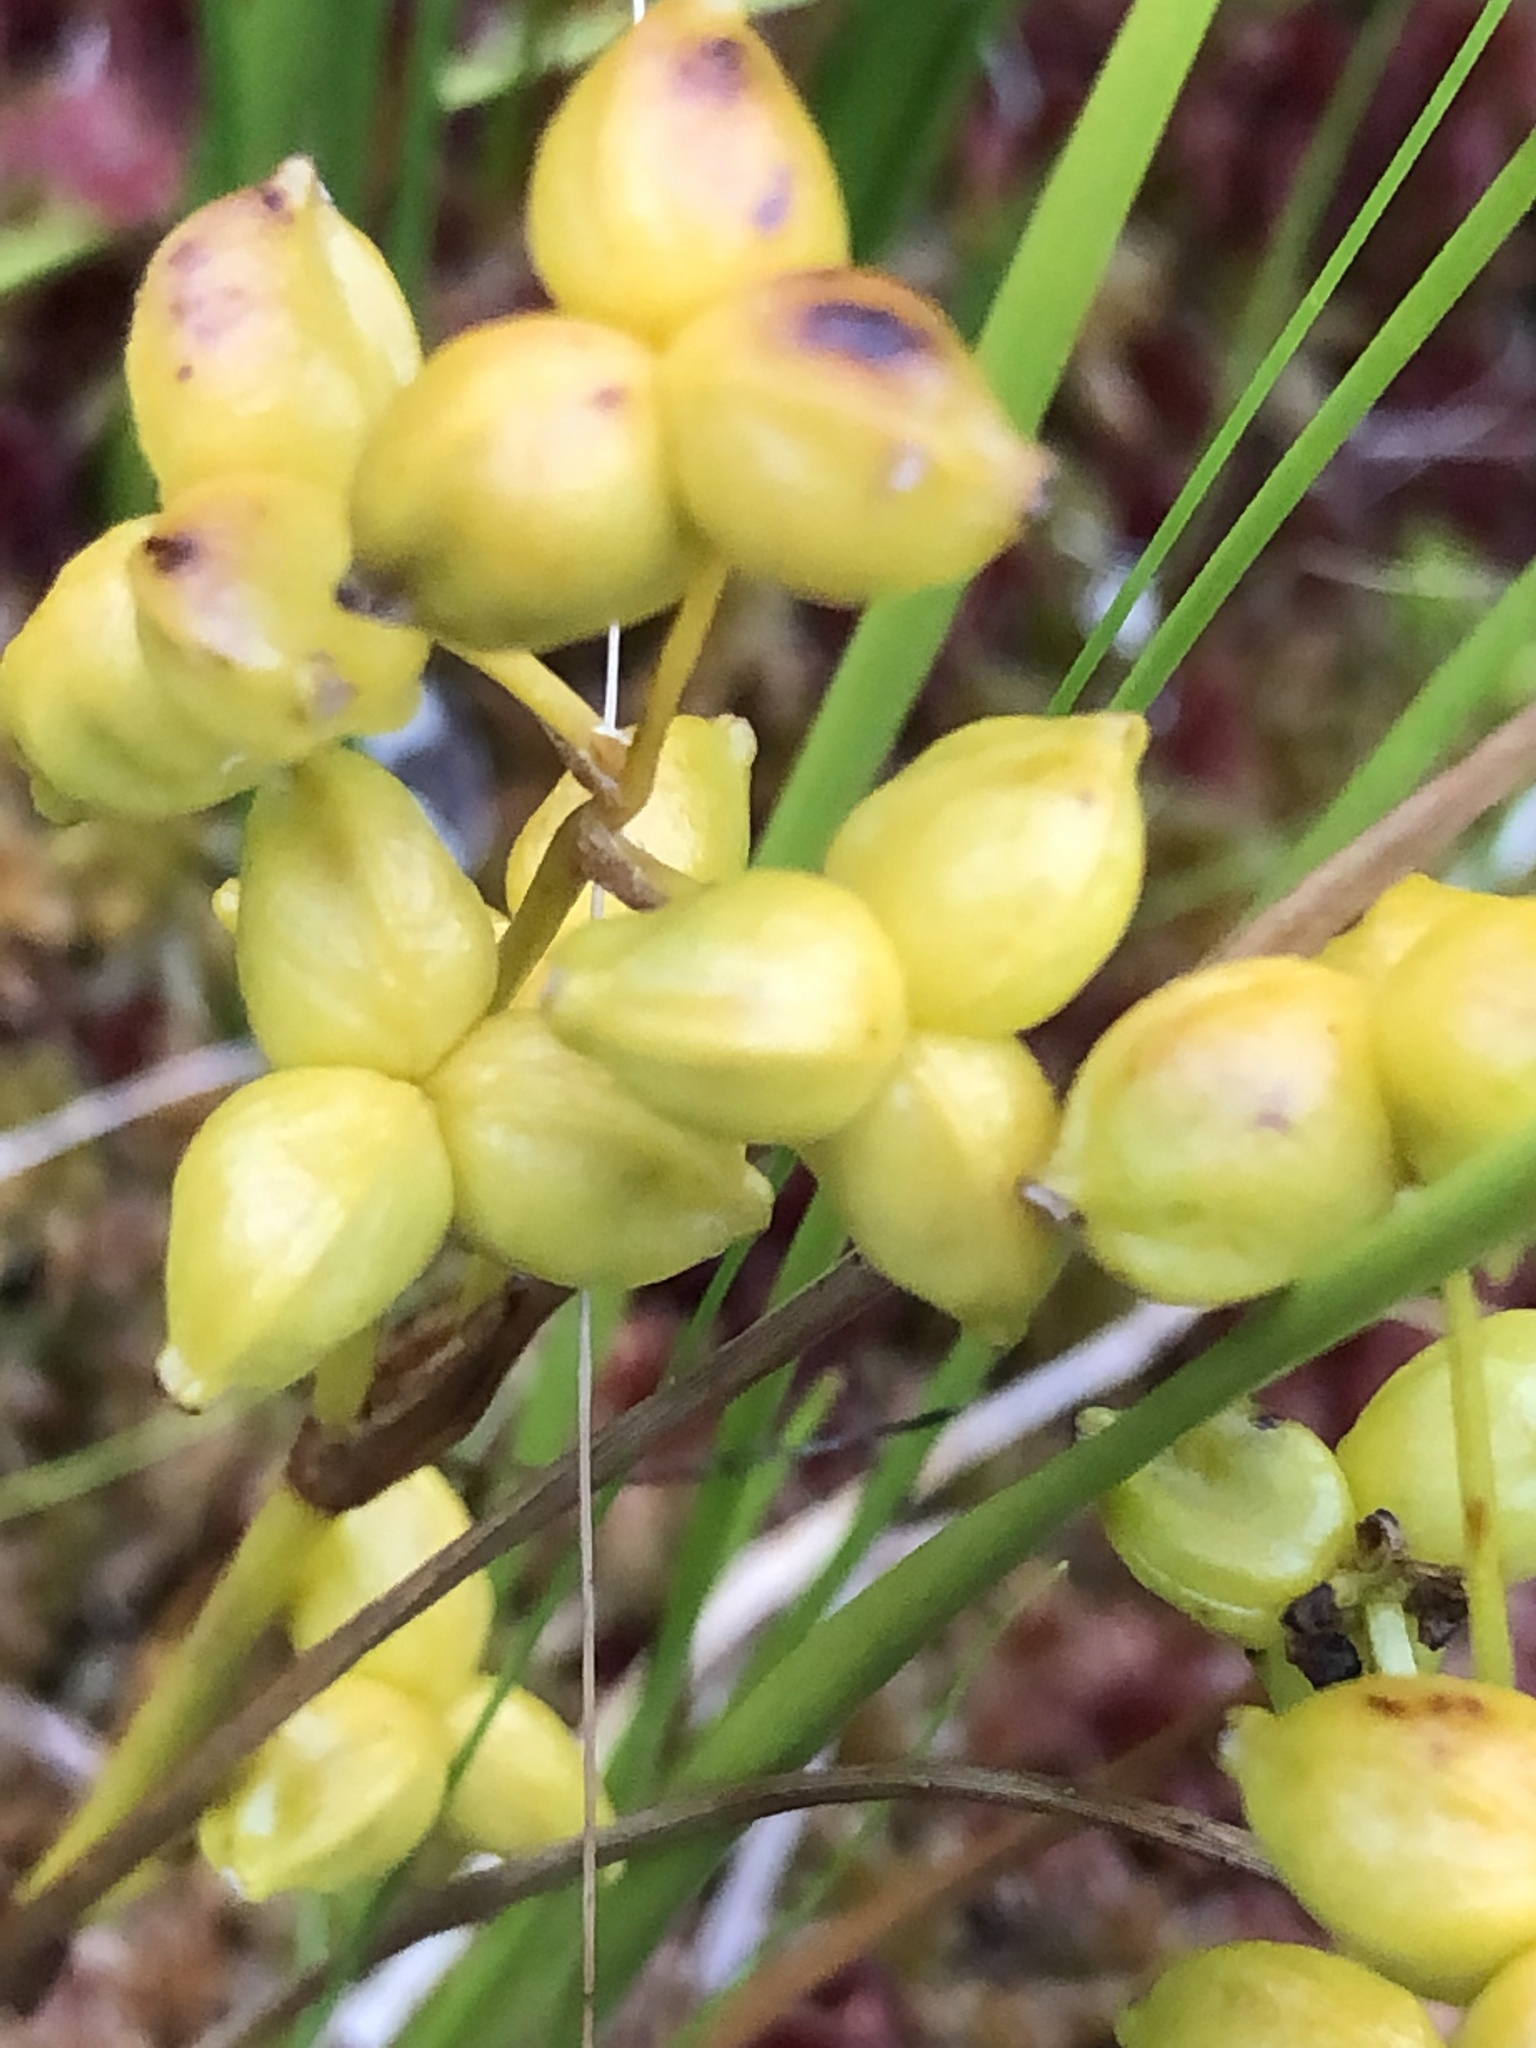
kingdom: Plantae
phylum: Tracheophyta
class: Liliopsida
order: Alismatales
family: Scheuchzeriaceae
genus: Scheuchzeria
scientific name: Scheuchzeria palustris
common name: Rannoch-rush
